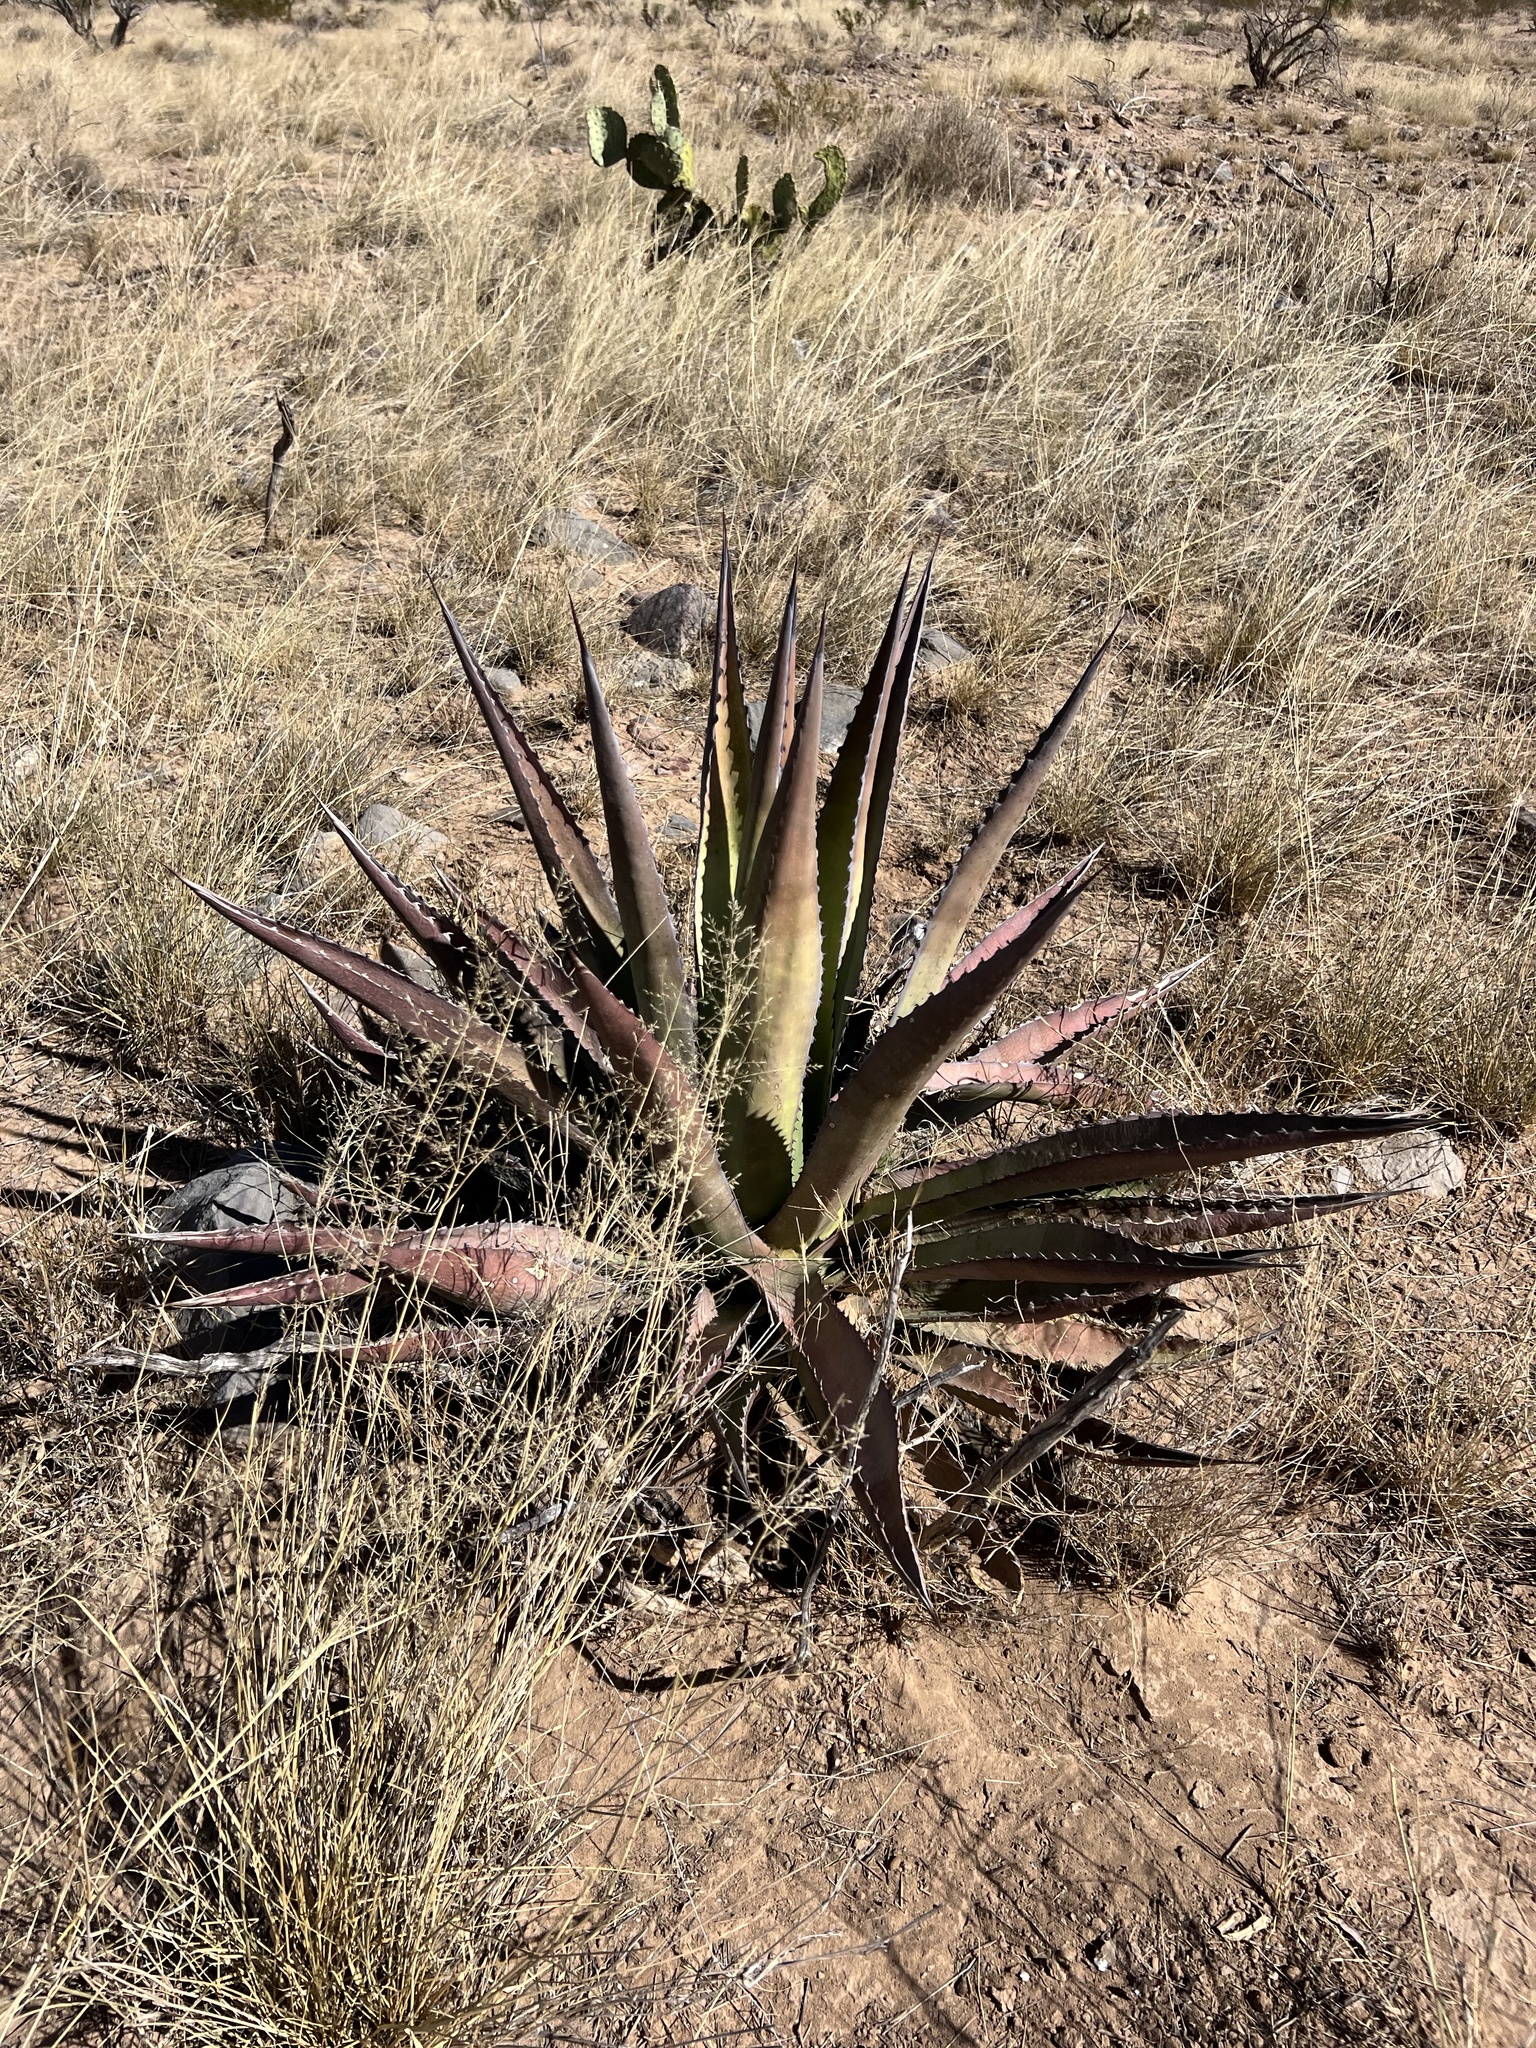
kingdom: Plantae
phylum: Tracheophyta
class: Liliopsida
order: Asparagales
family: Asparagaceae
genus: Agave
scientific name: Agave palmeri
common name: Palmer agave
